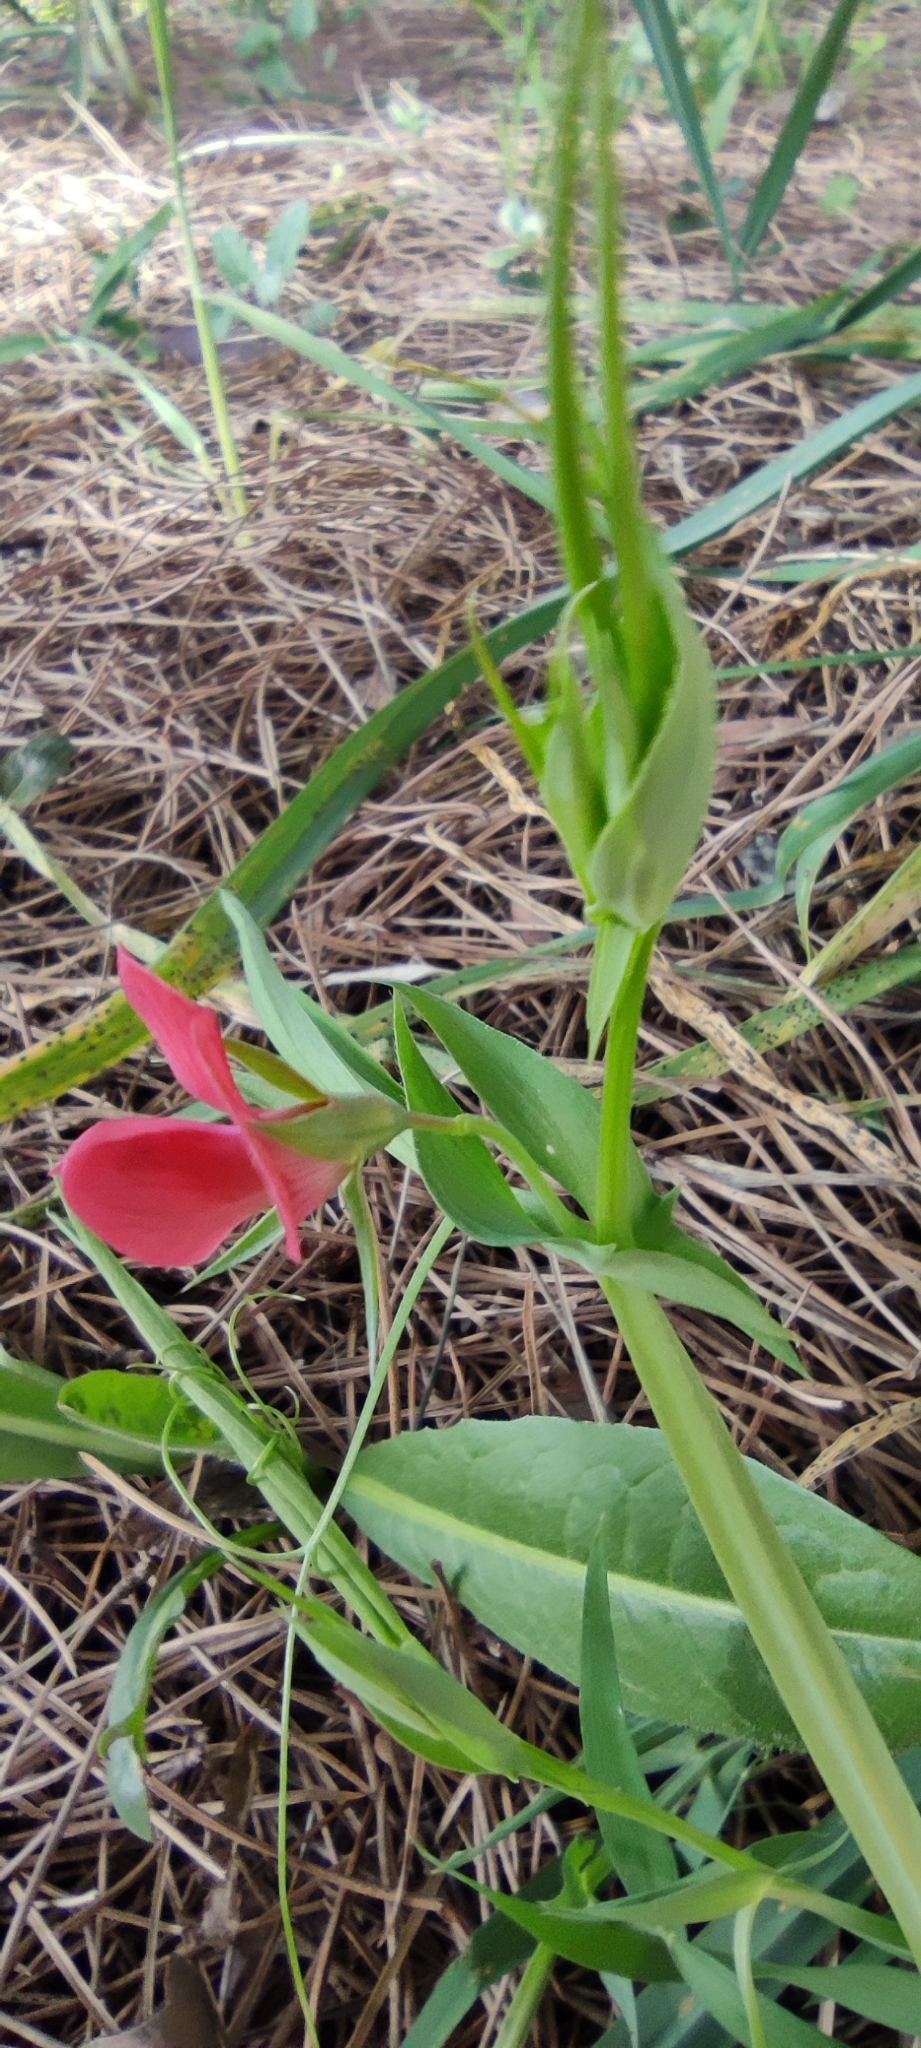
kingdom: Plantae
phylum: Tracheophyta
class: Magnoliopsida
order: Fabales
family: Fabaceae
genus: Lathyrus
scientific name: Lathyrus cicera
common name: Red vetchling
